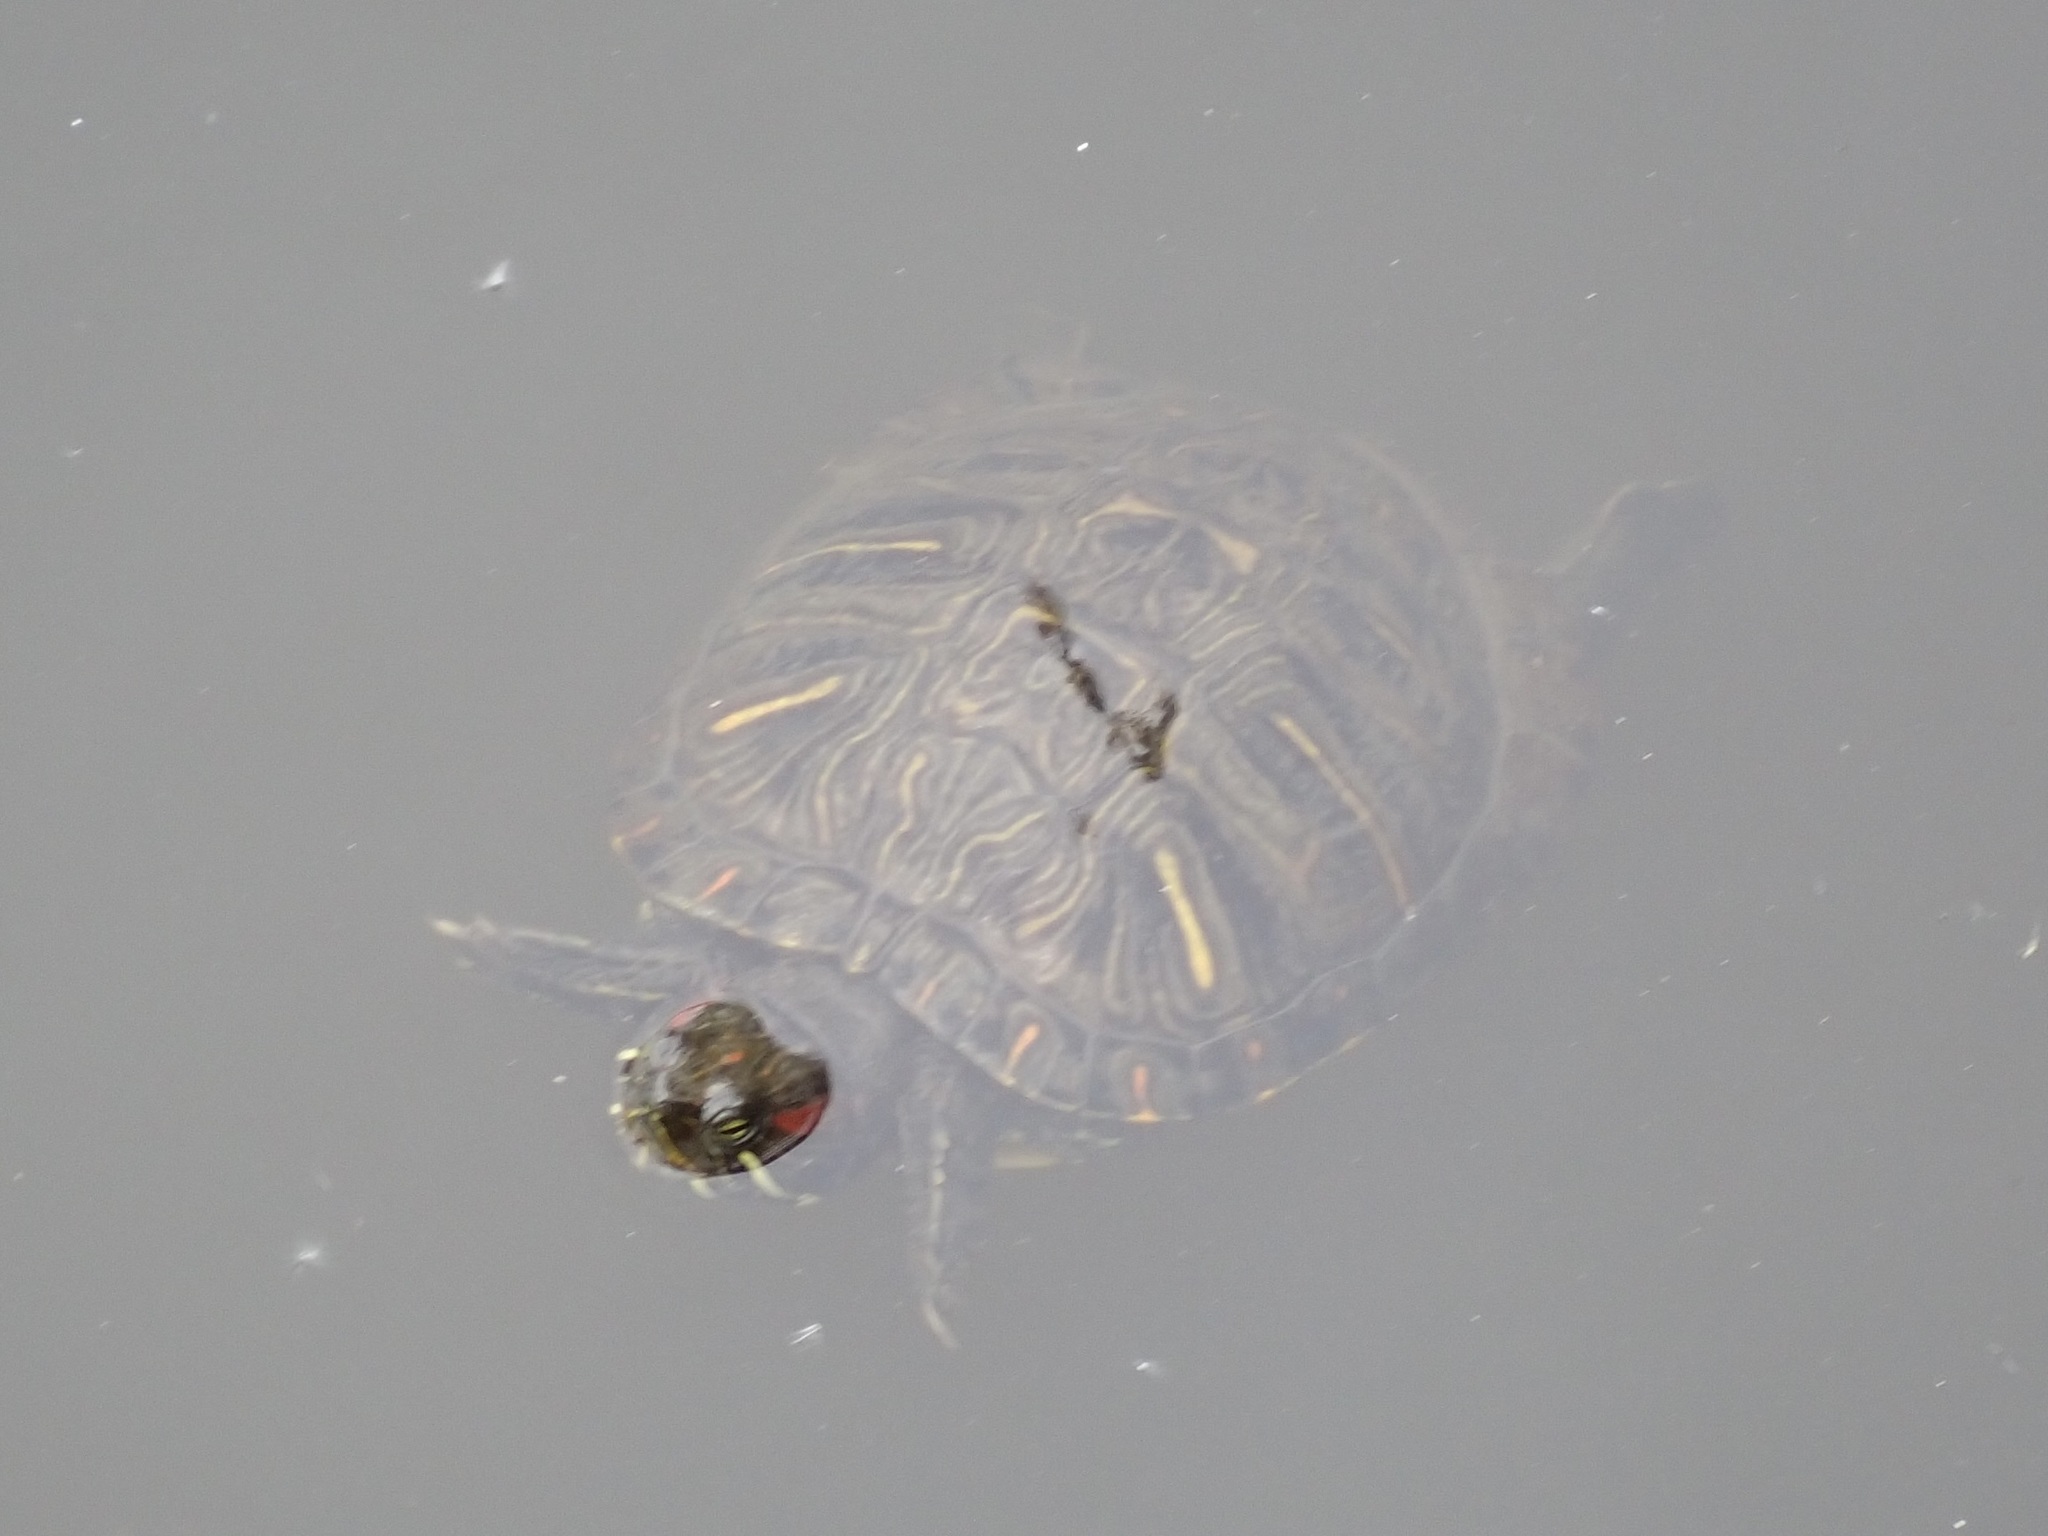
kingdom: Animalia
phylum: Chordata
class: Testudines
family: Emydidae
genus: Trachemys
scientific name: Trachemys scripta
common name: Slider
